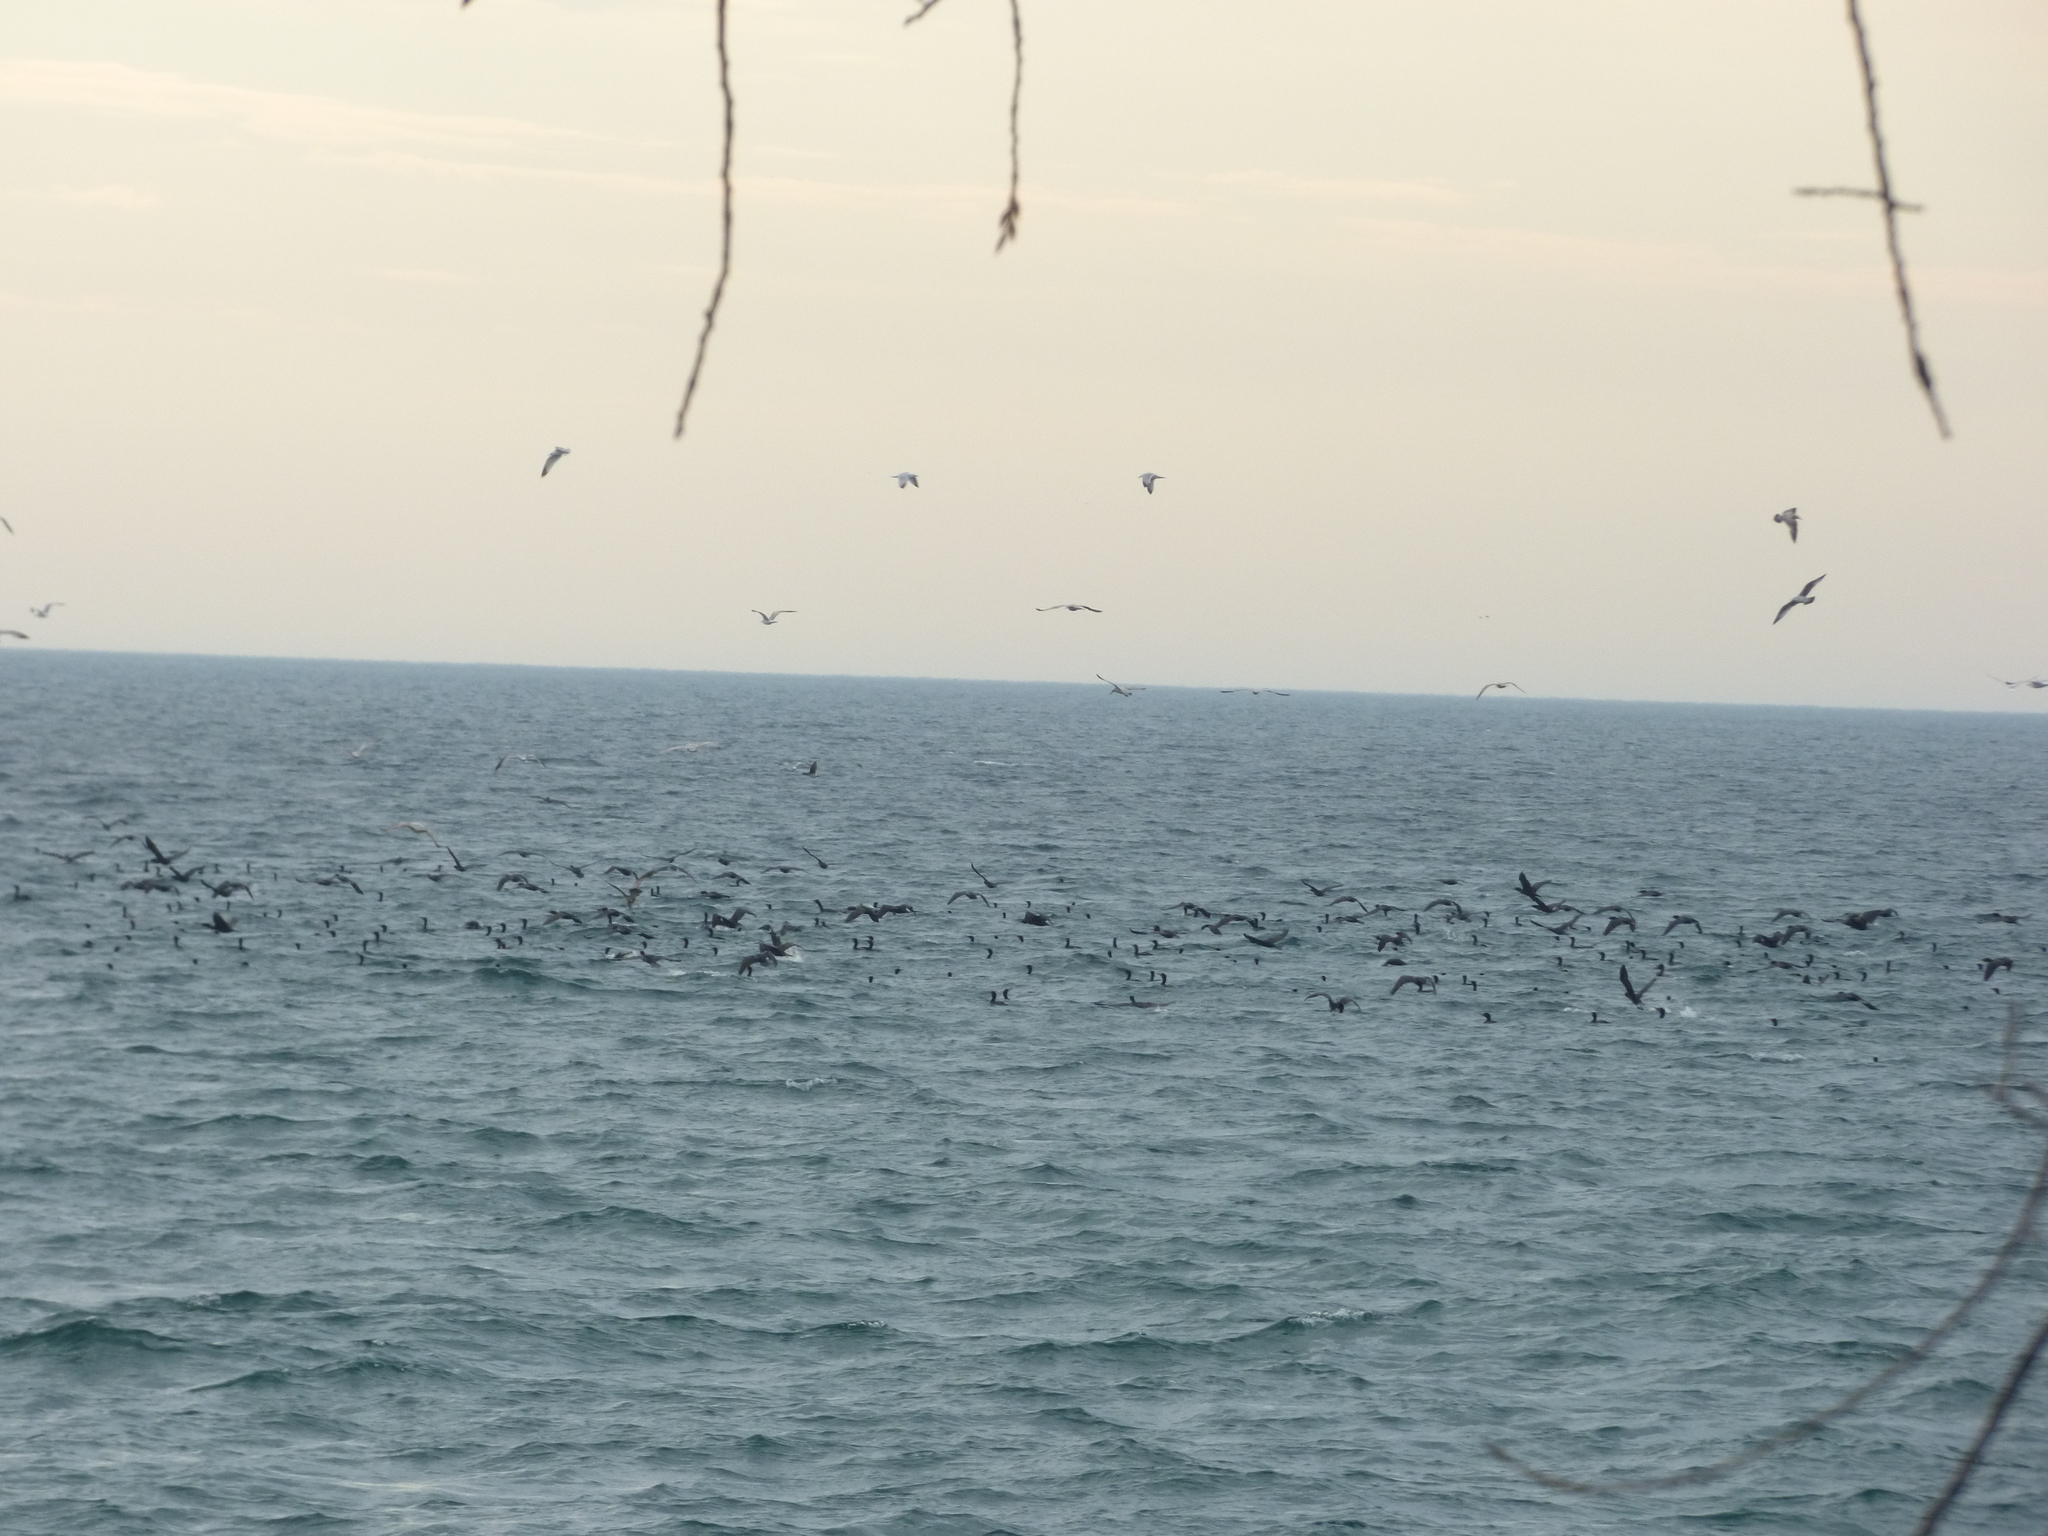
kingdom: Animalia
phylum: Chordata
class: Aves
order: Suliformes
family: Phalacrocoracidae
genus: Phalacrocorax
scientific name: Phalacrocorax auritus
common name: Double-crested cormorant
